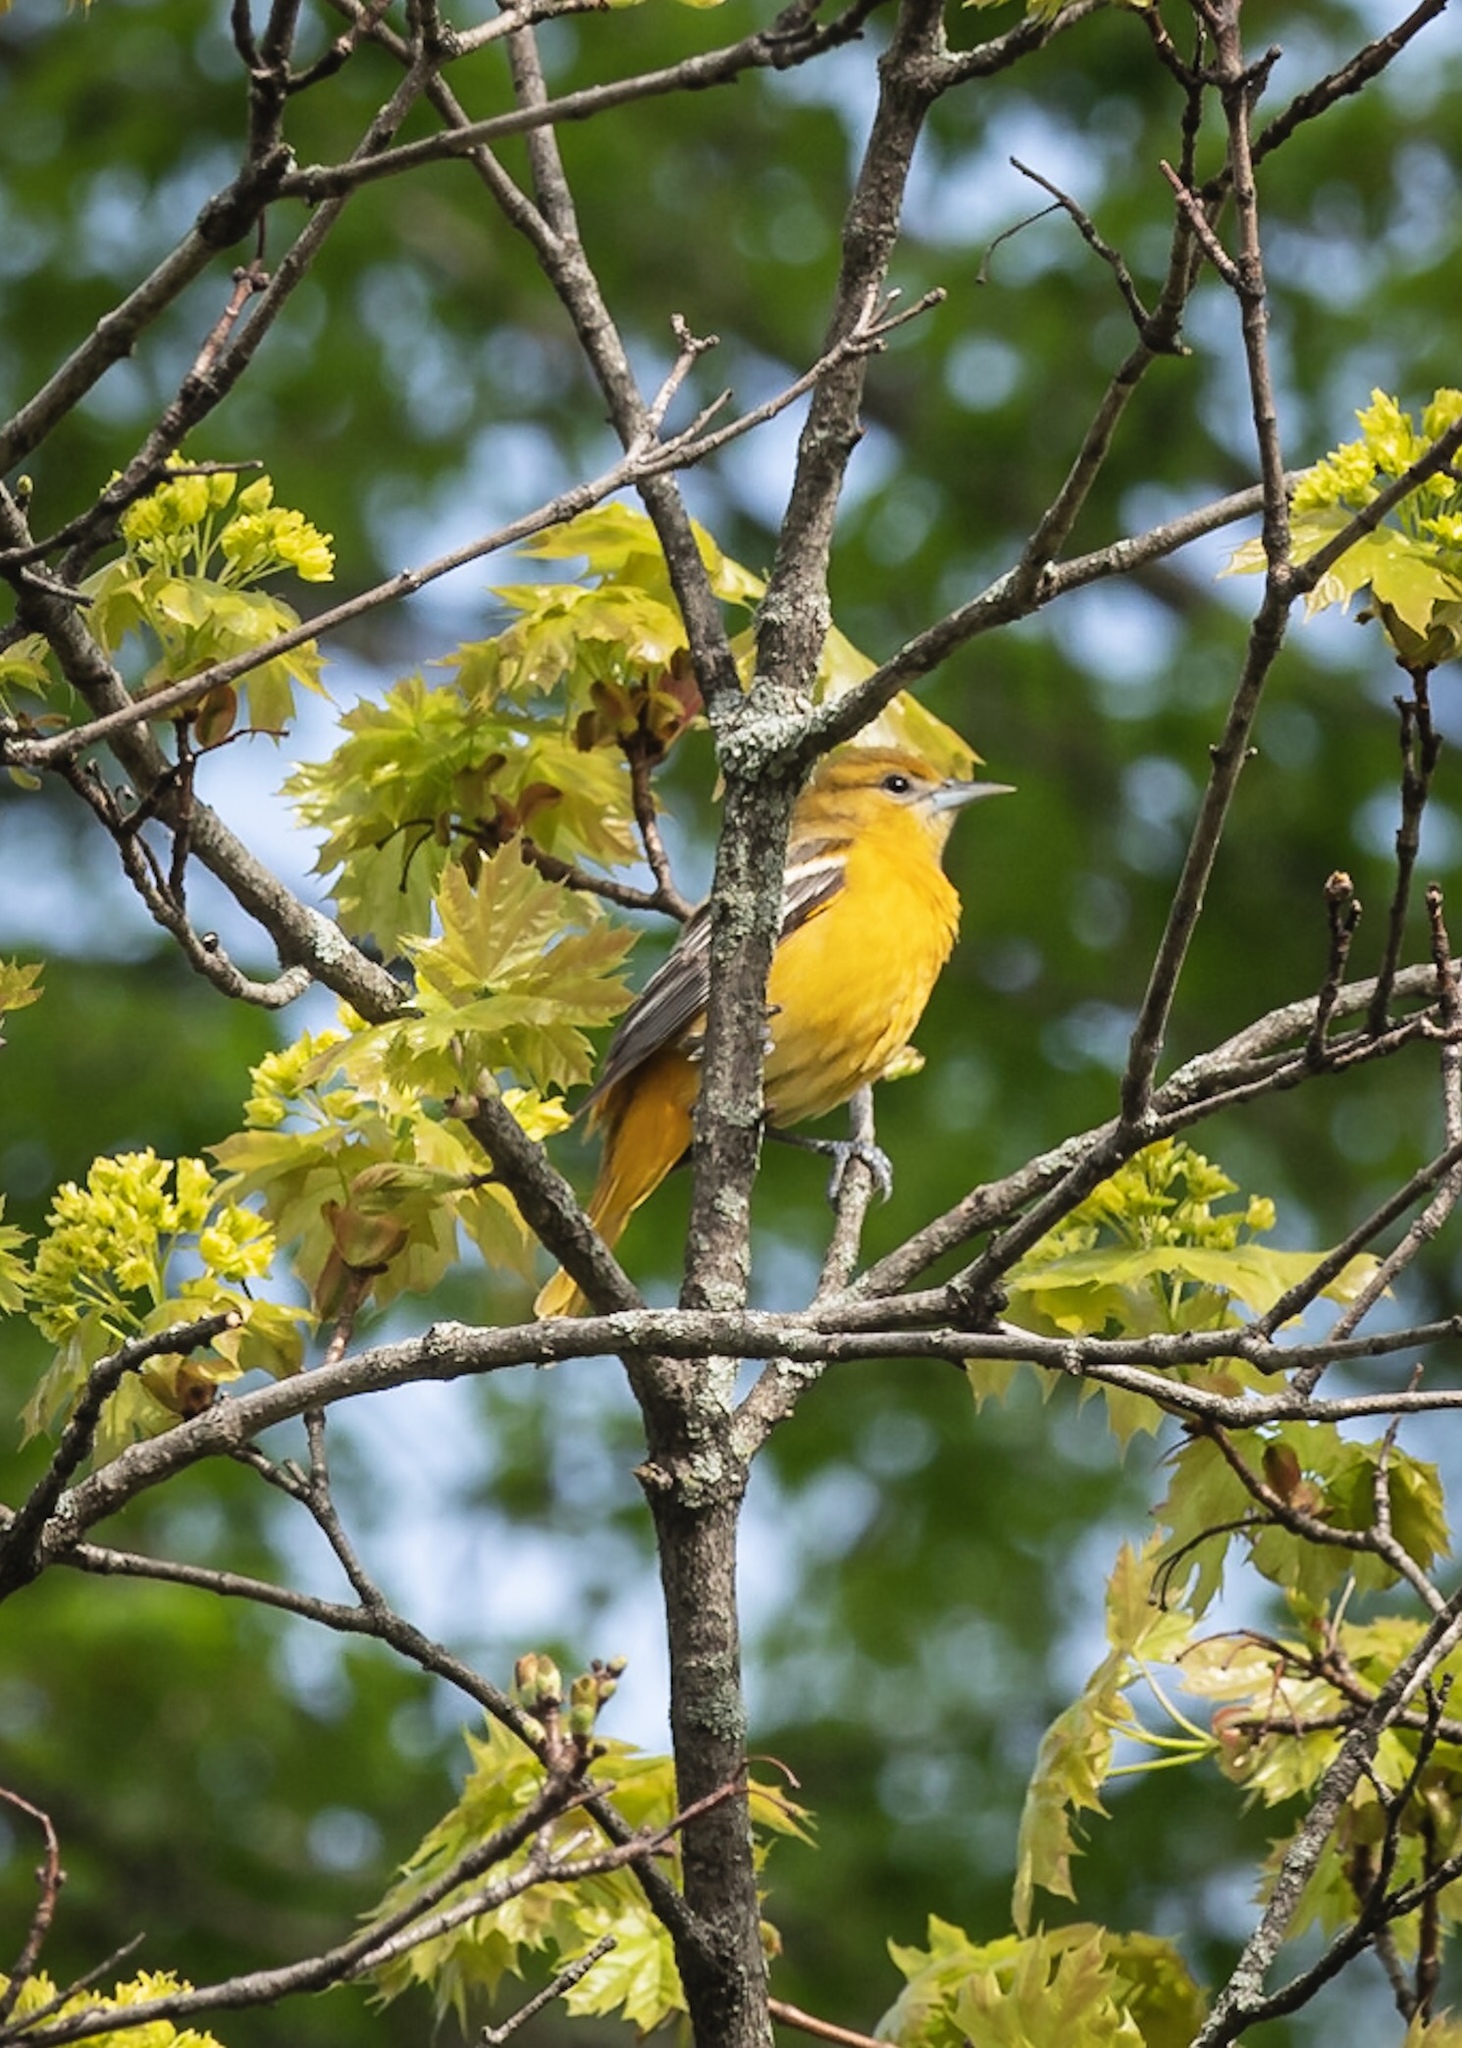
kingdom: Animalia
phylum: Chordata
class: Aves
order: Passeriformes
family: Icteridae
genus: Icterus
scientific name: Icterus galbula
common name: Baltimore oriole
